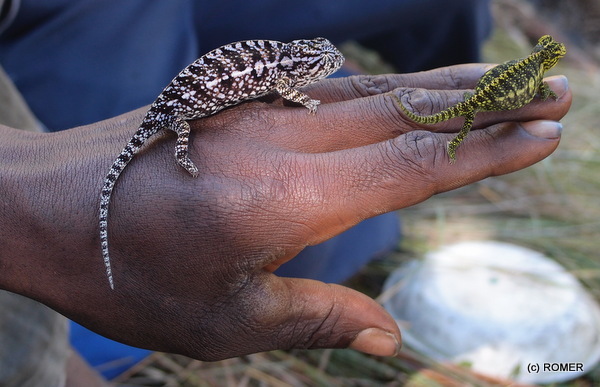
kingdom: Animalia
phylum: Chordata
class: Squamata
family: Chamaeleonidae
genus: Furcifer
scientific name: Furcifer lateralis
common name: Carpet chameleon
